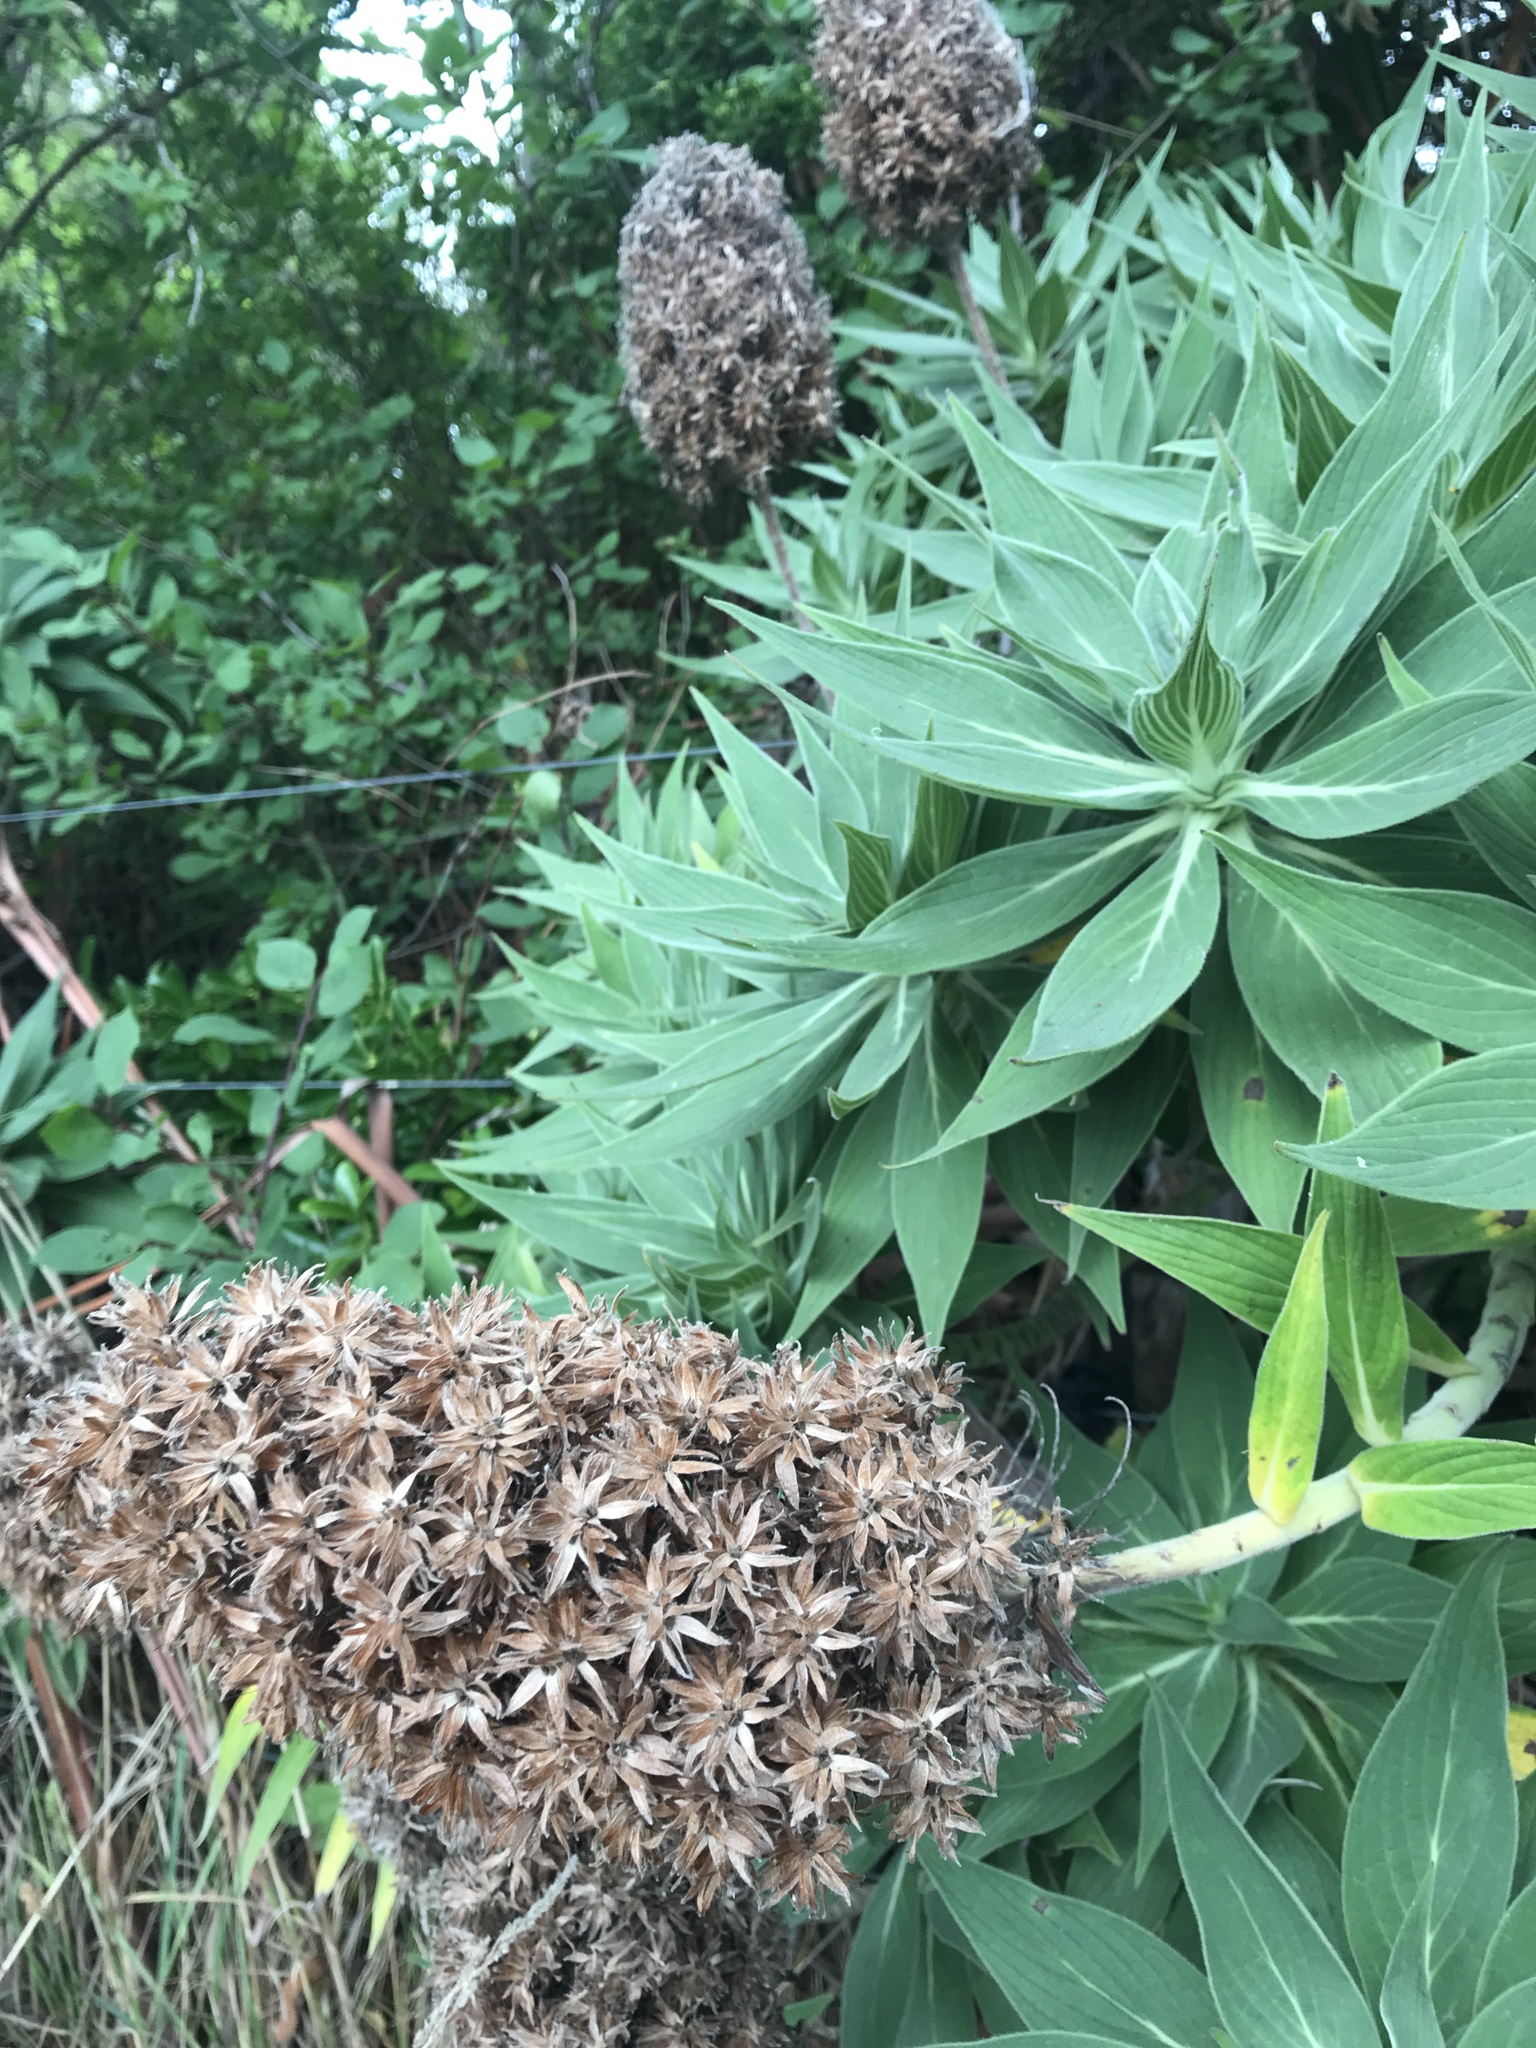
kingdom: Plantae
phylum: Tracheophyta
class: Magnoliopsida
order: Boraginales
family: Boraginaceae
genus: Echium
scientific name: Echium candicans
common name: Pride of madeira
